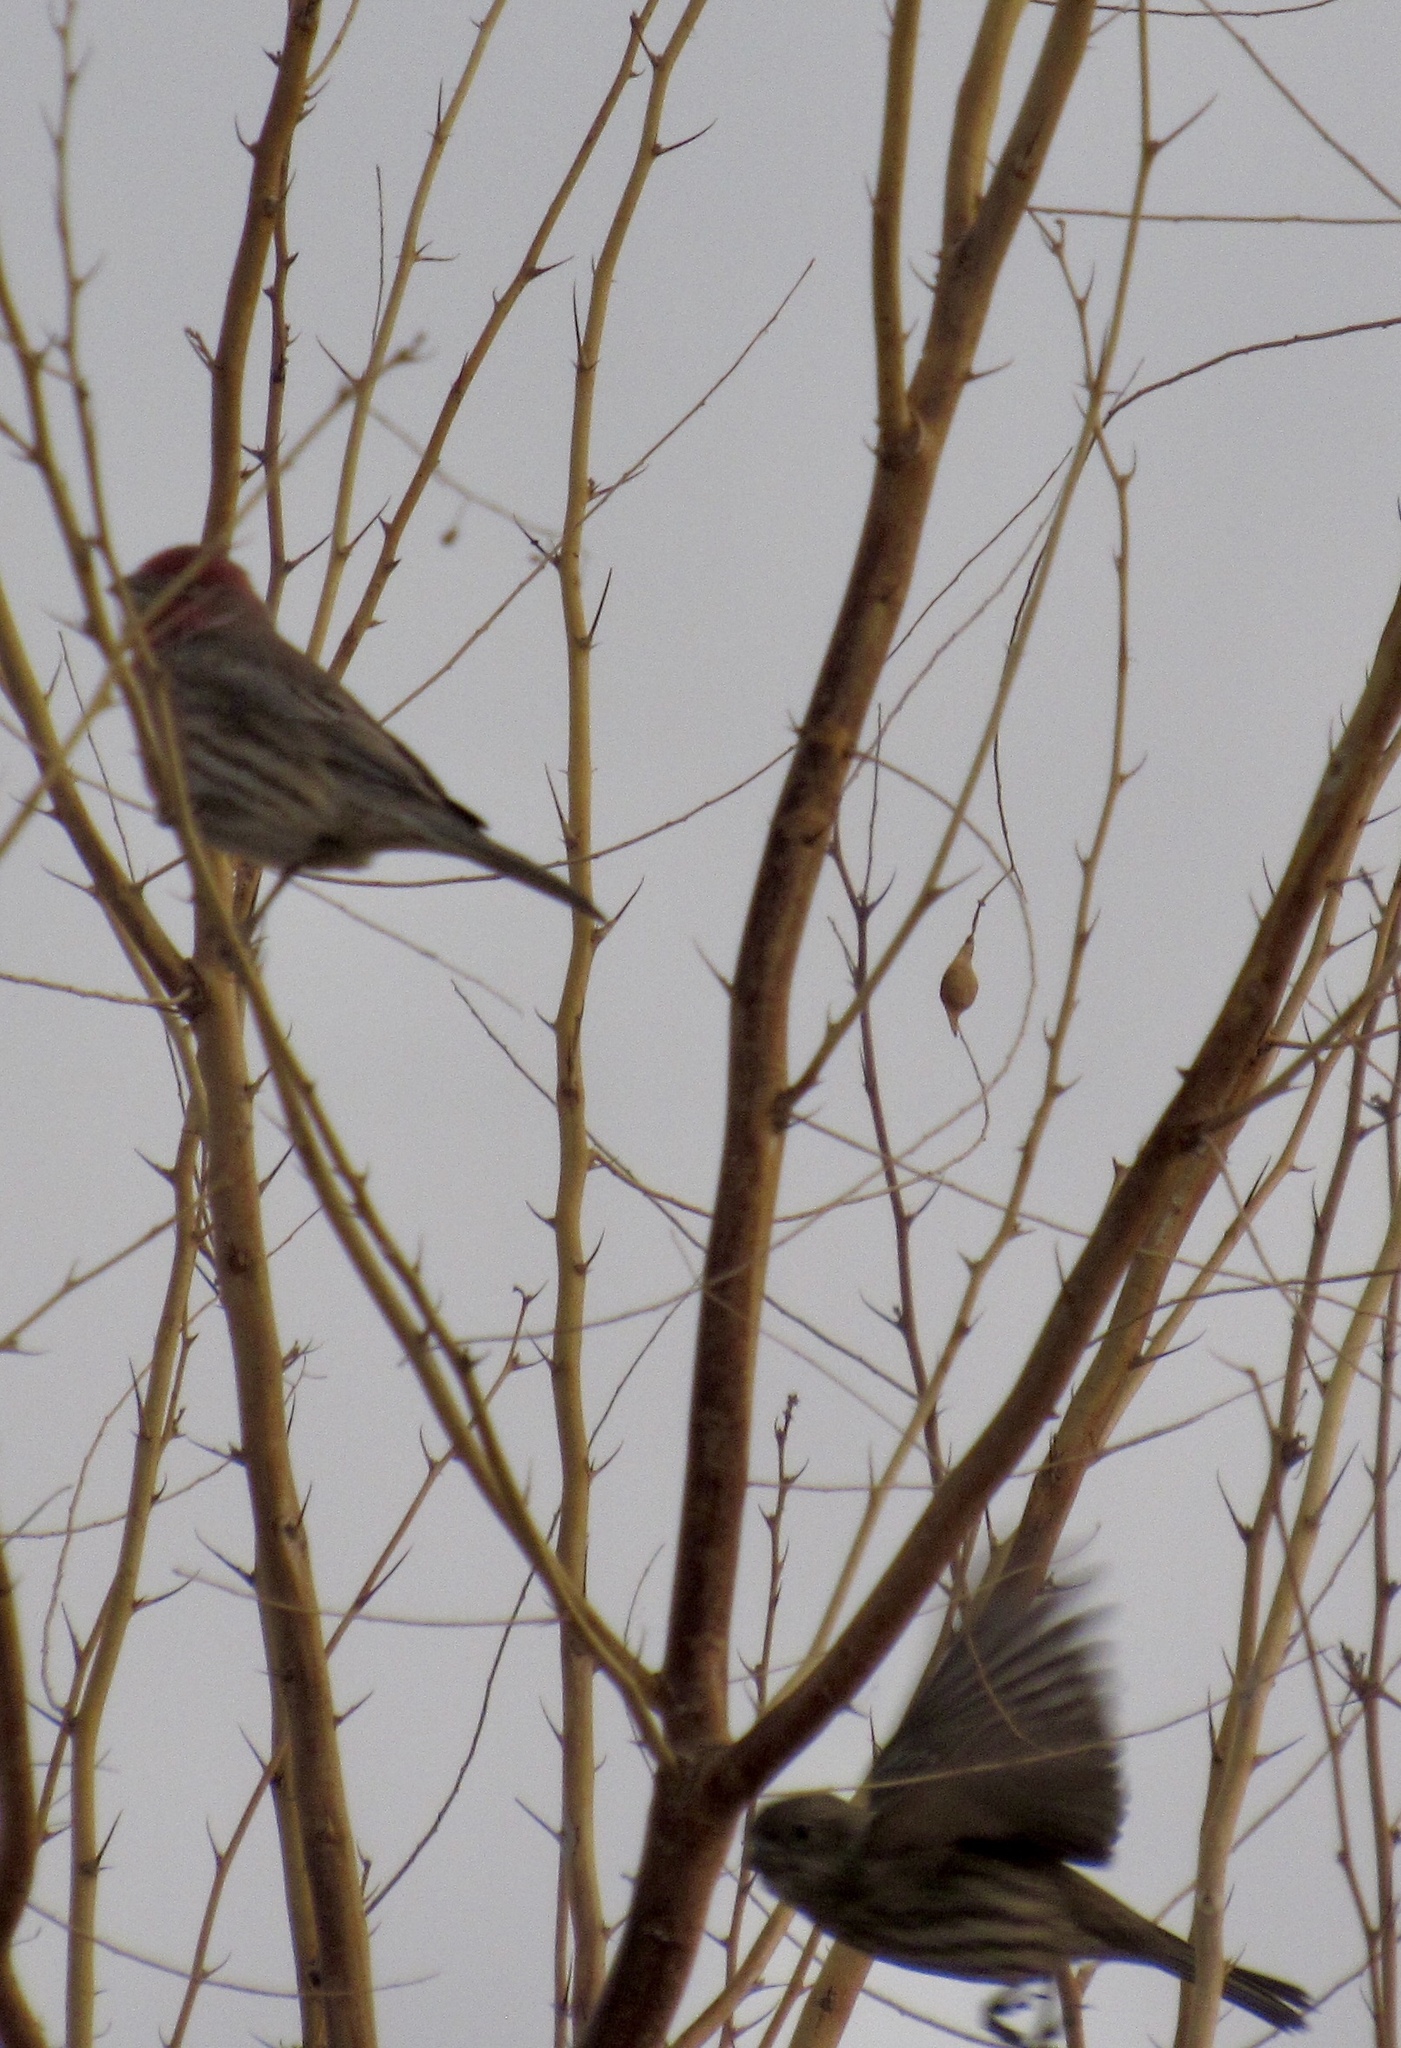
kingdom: Animalia
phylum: Chordata
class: Aves
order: Passeriformes
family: Fringillidae
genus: Haemorhous
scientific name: Haemorhous mexicanus
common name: House finch
